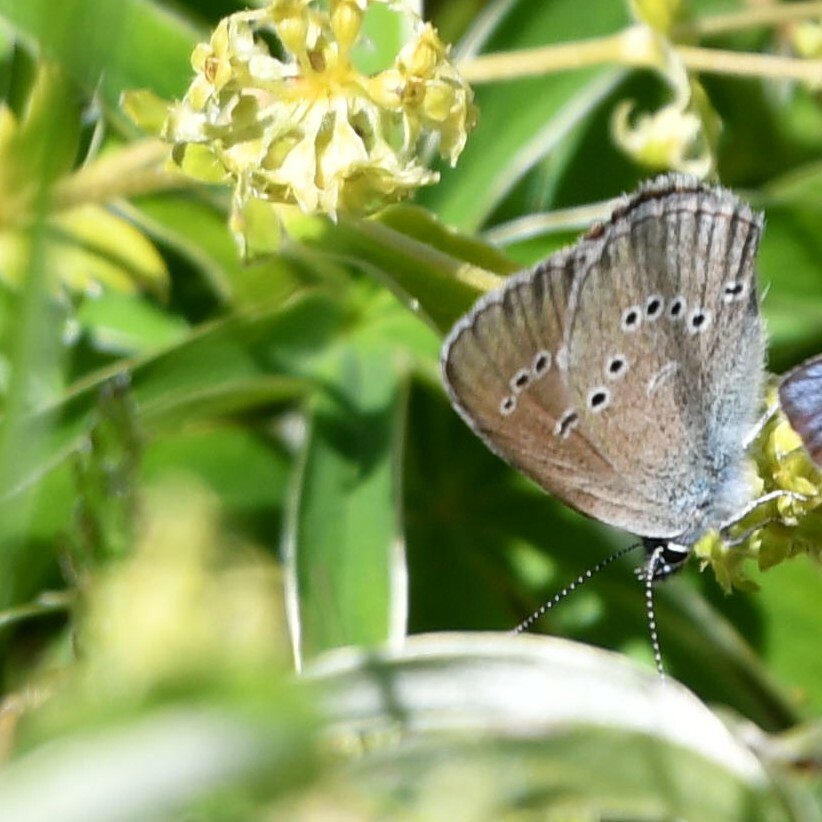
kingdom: Animalia
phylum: Arthropoda
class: Insecta
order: Lepidoptera
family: Lycaenidae
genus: Cyaniris
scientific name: Cyaniris semiargus
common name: Mazarine blue
